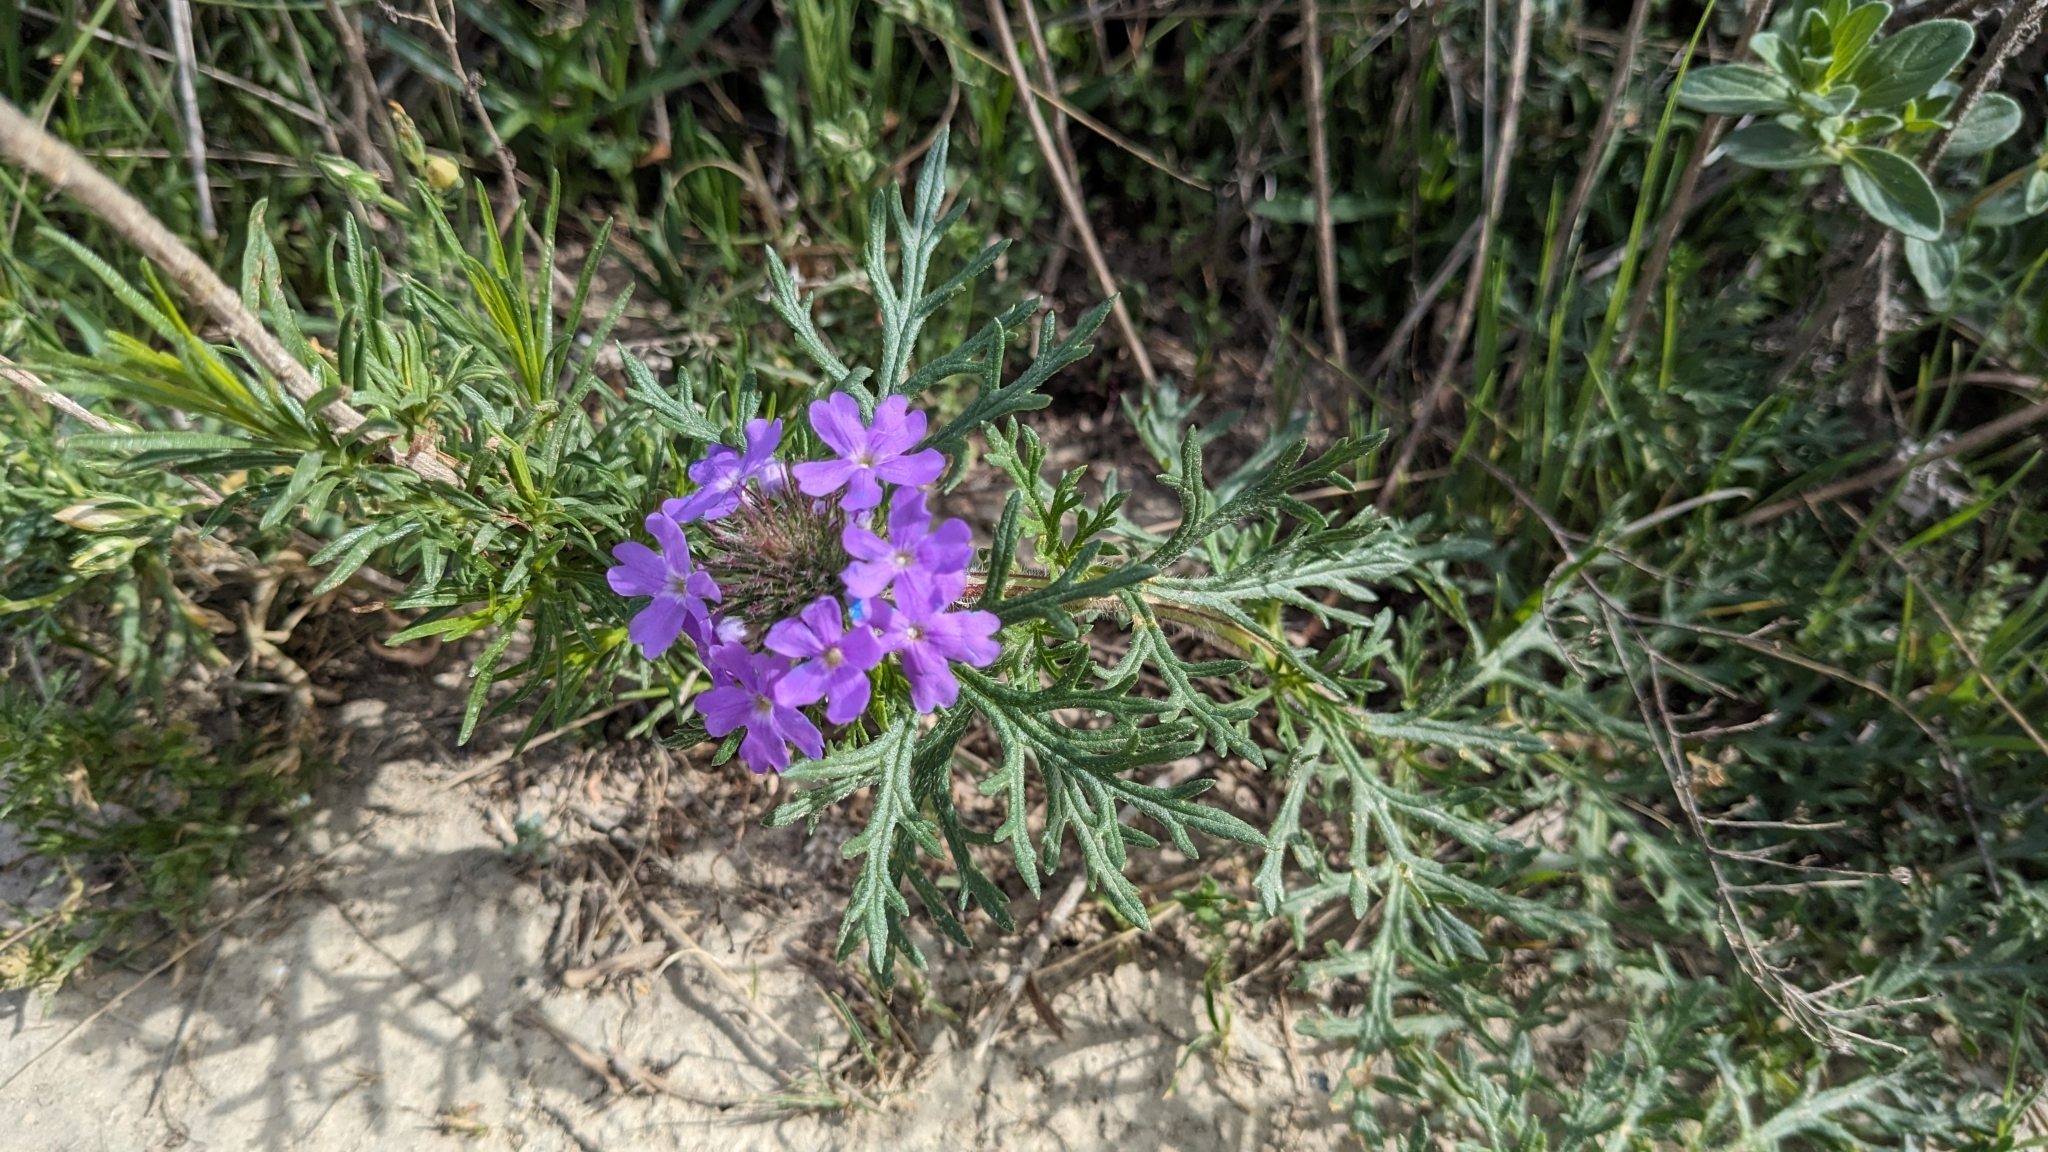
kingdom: Plantae
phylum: Tracheophyta
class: Magnoliopsida
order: Lamiales
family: Verbenaceae
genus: Verbena
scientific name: Verbena bipinnatifida
